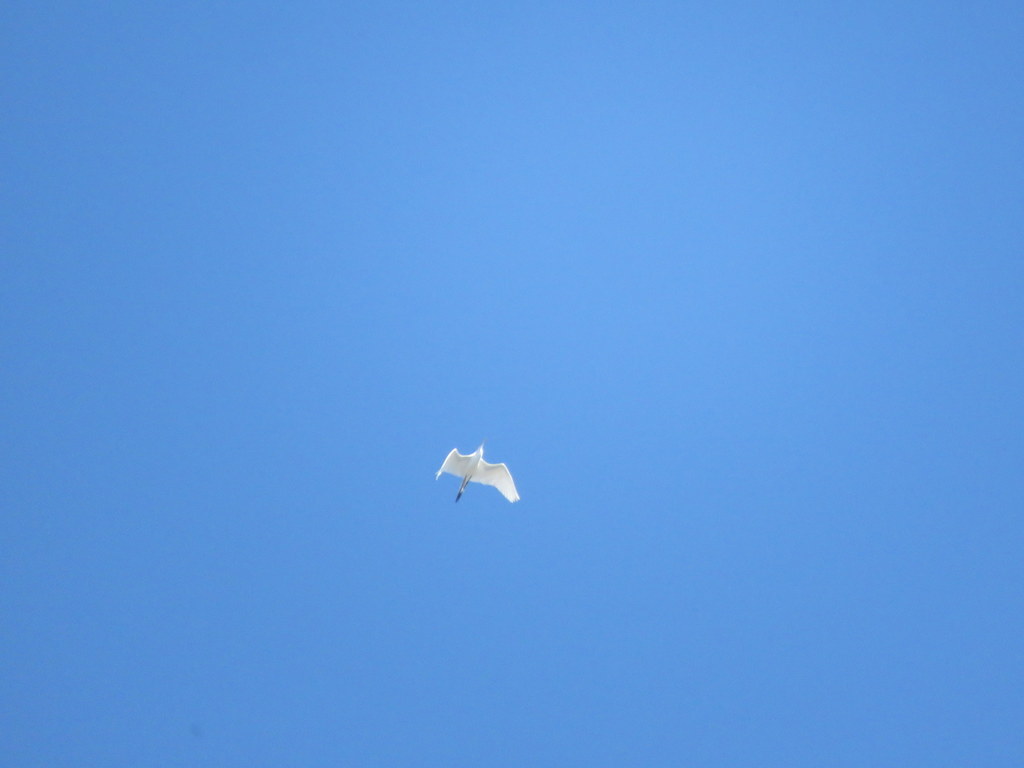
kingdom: Animalia
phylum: Chordata
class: Aves
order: Pelecaniformes
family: Ardeidae
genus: Ardea
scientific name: Ardea alba
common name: Great egret
